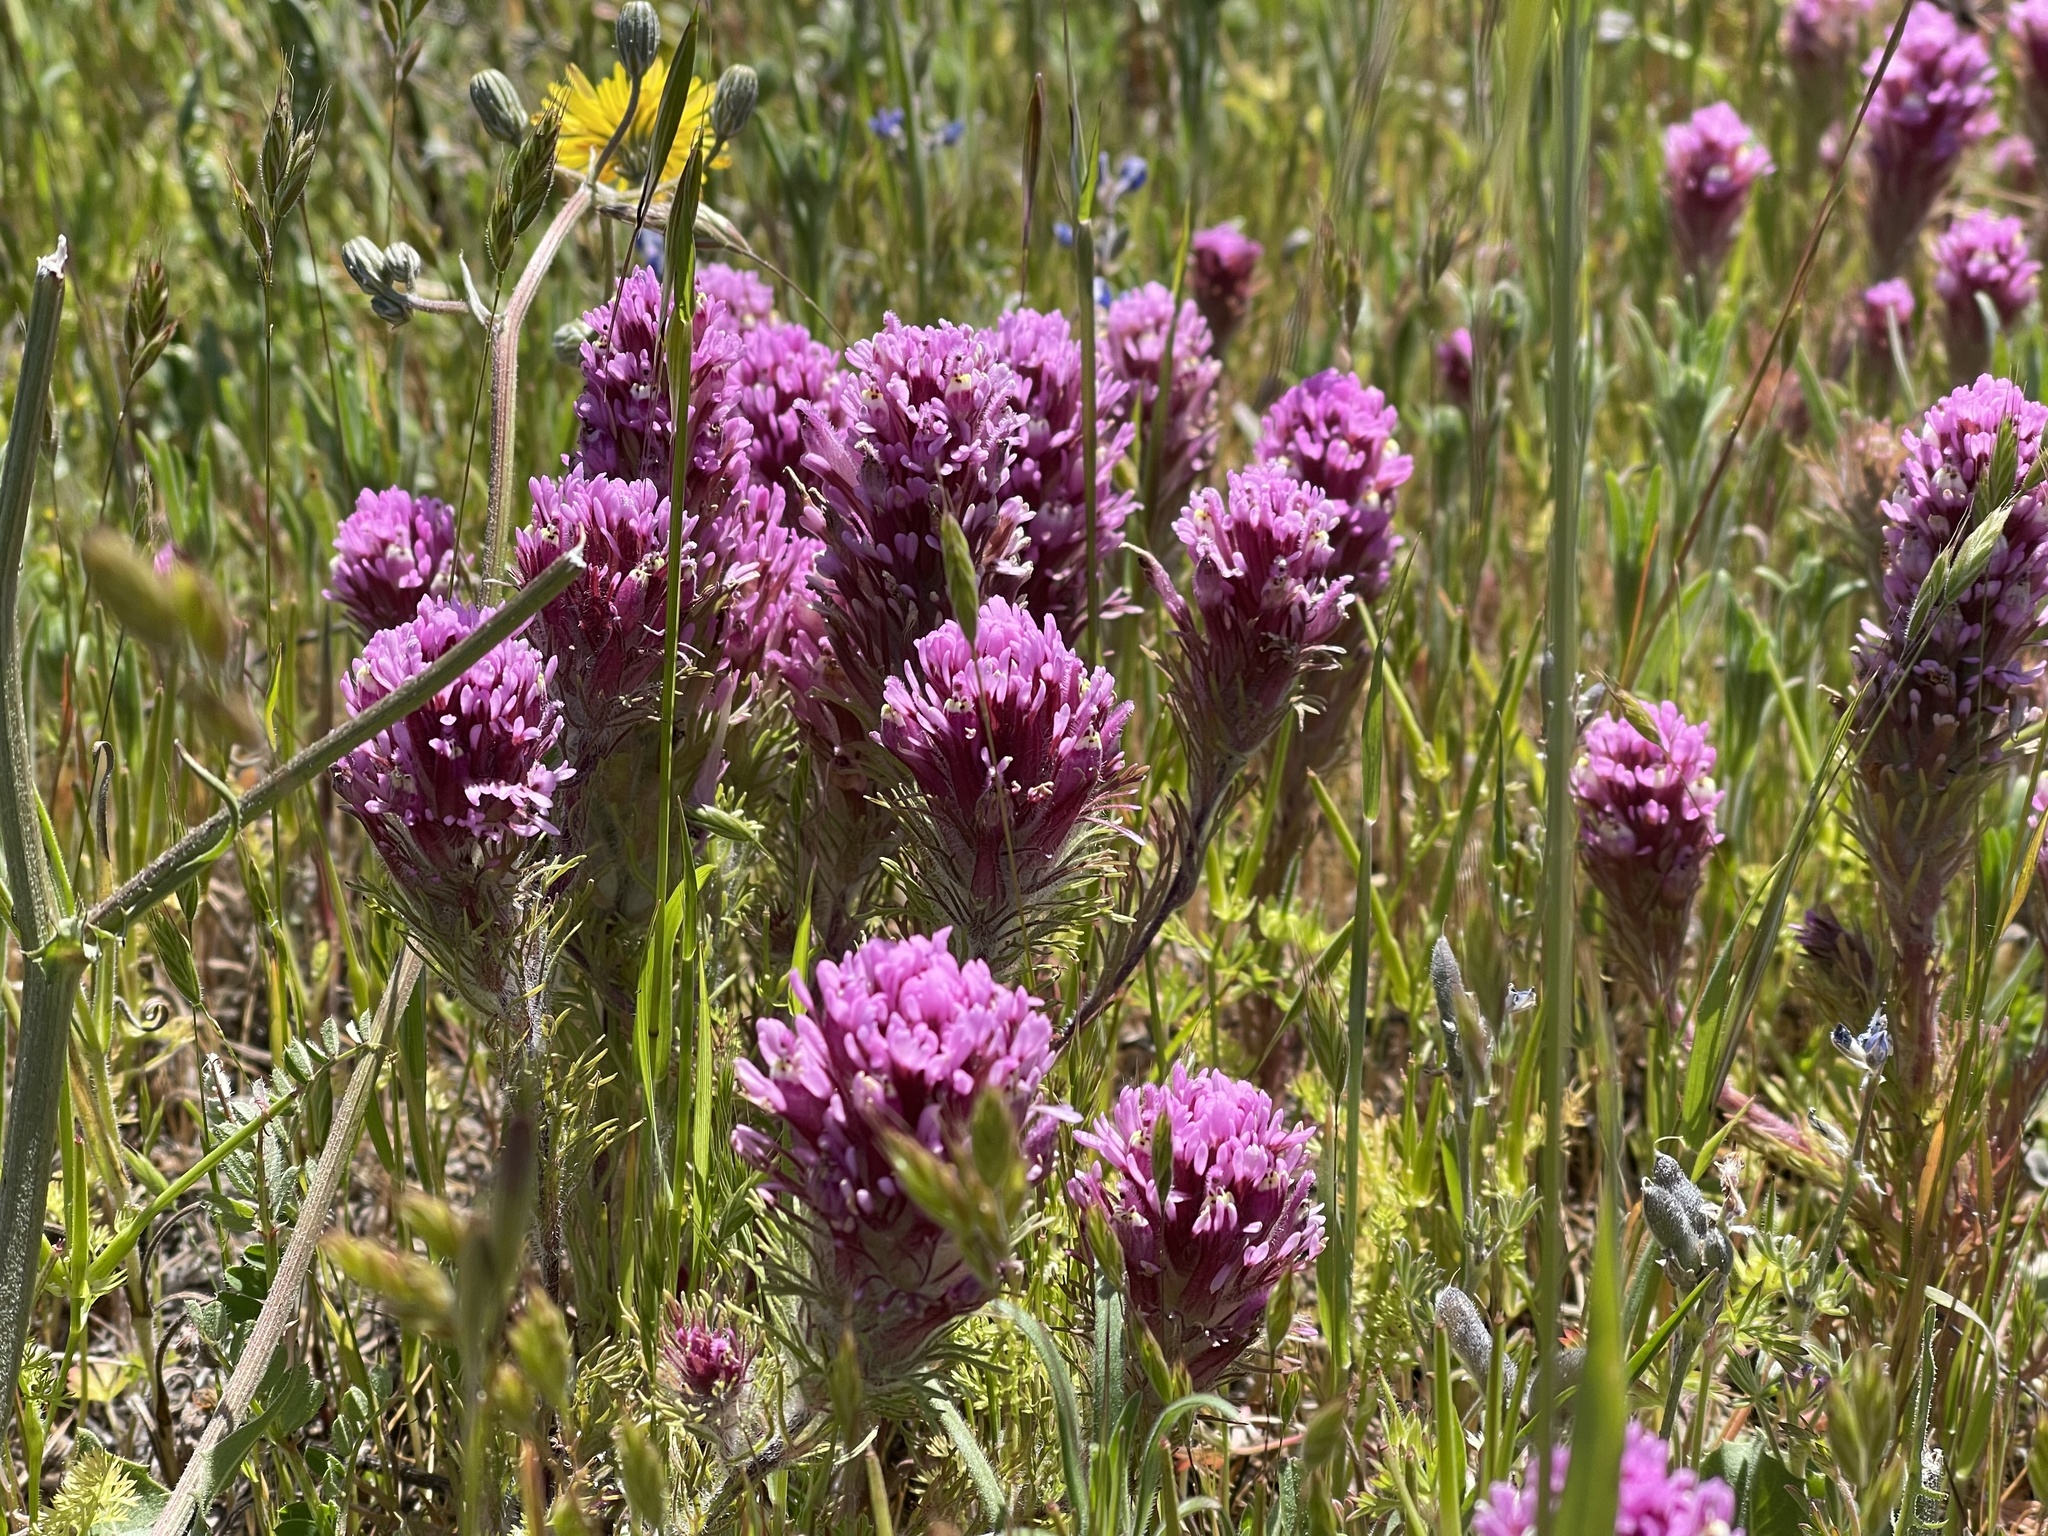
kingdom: Plantae
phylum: Tracheophyta
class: Magnoliopsida
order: Lamiales
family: Orobanchaceae
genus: Castilleja
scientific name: Castilleja exserta
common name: Purple owl-clover
